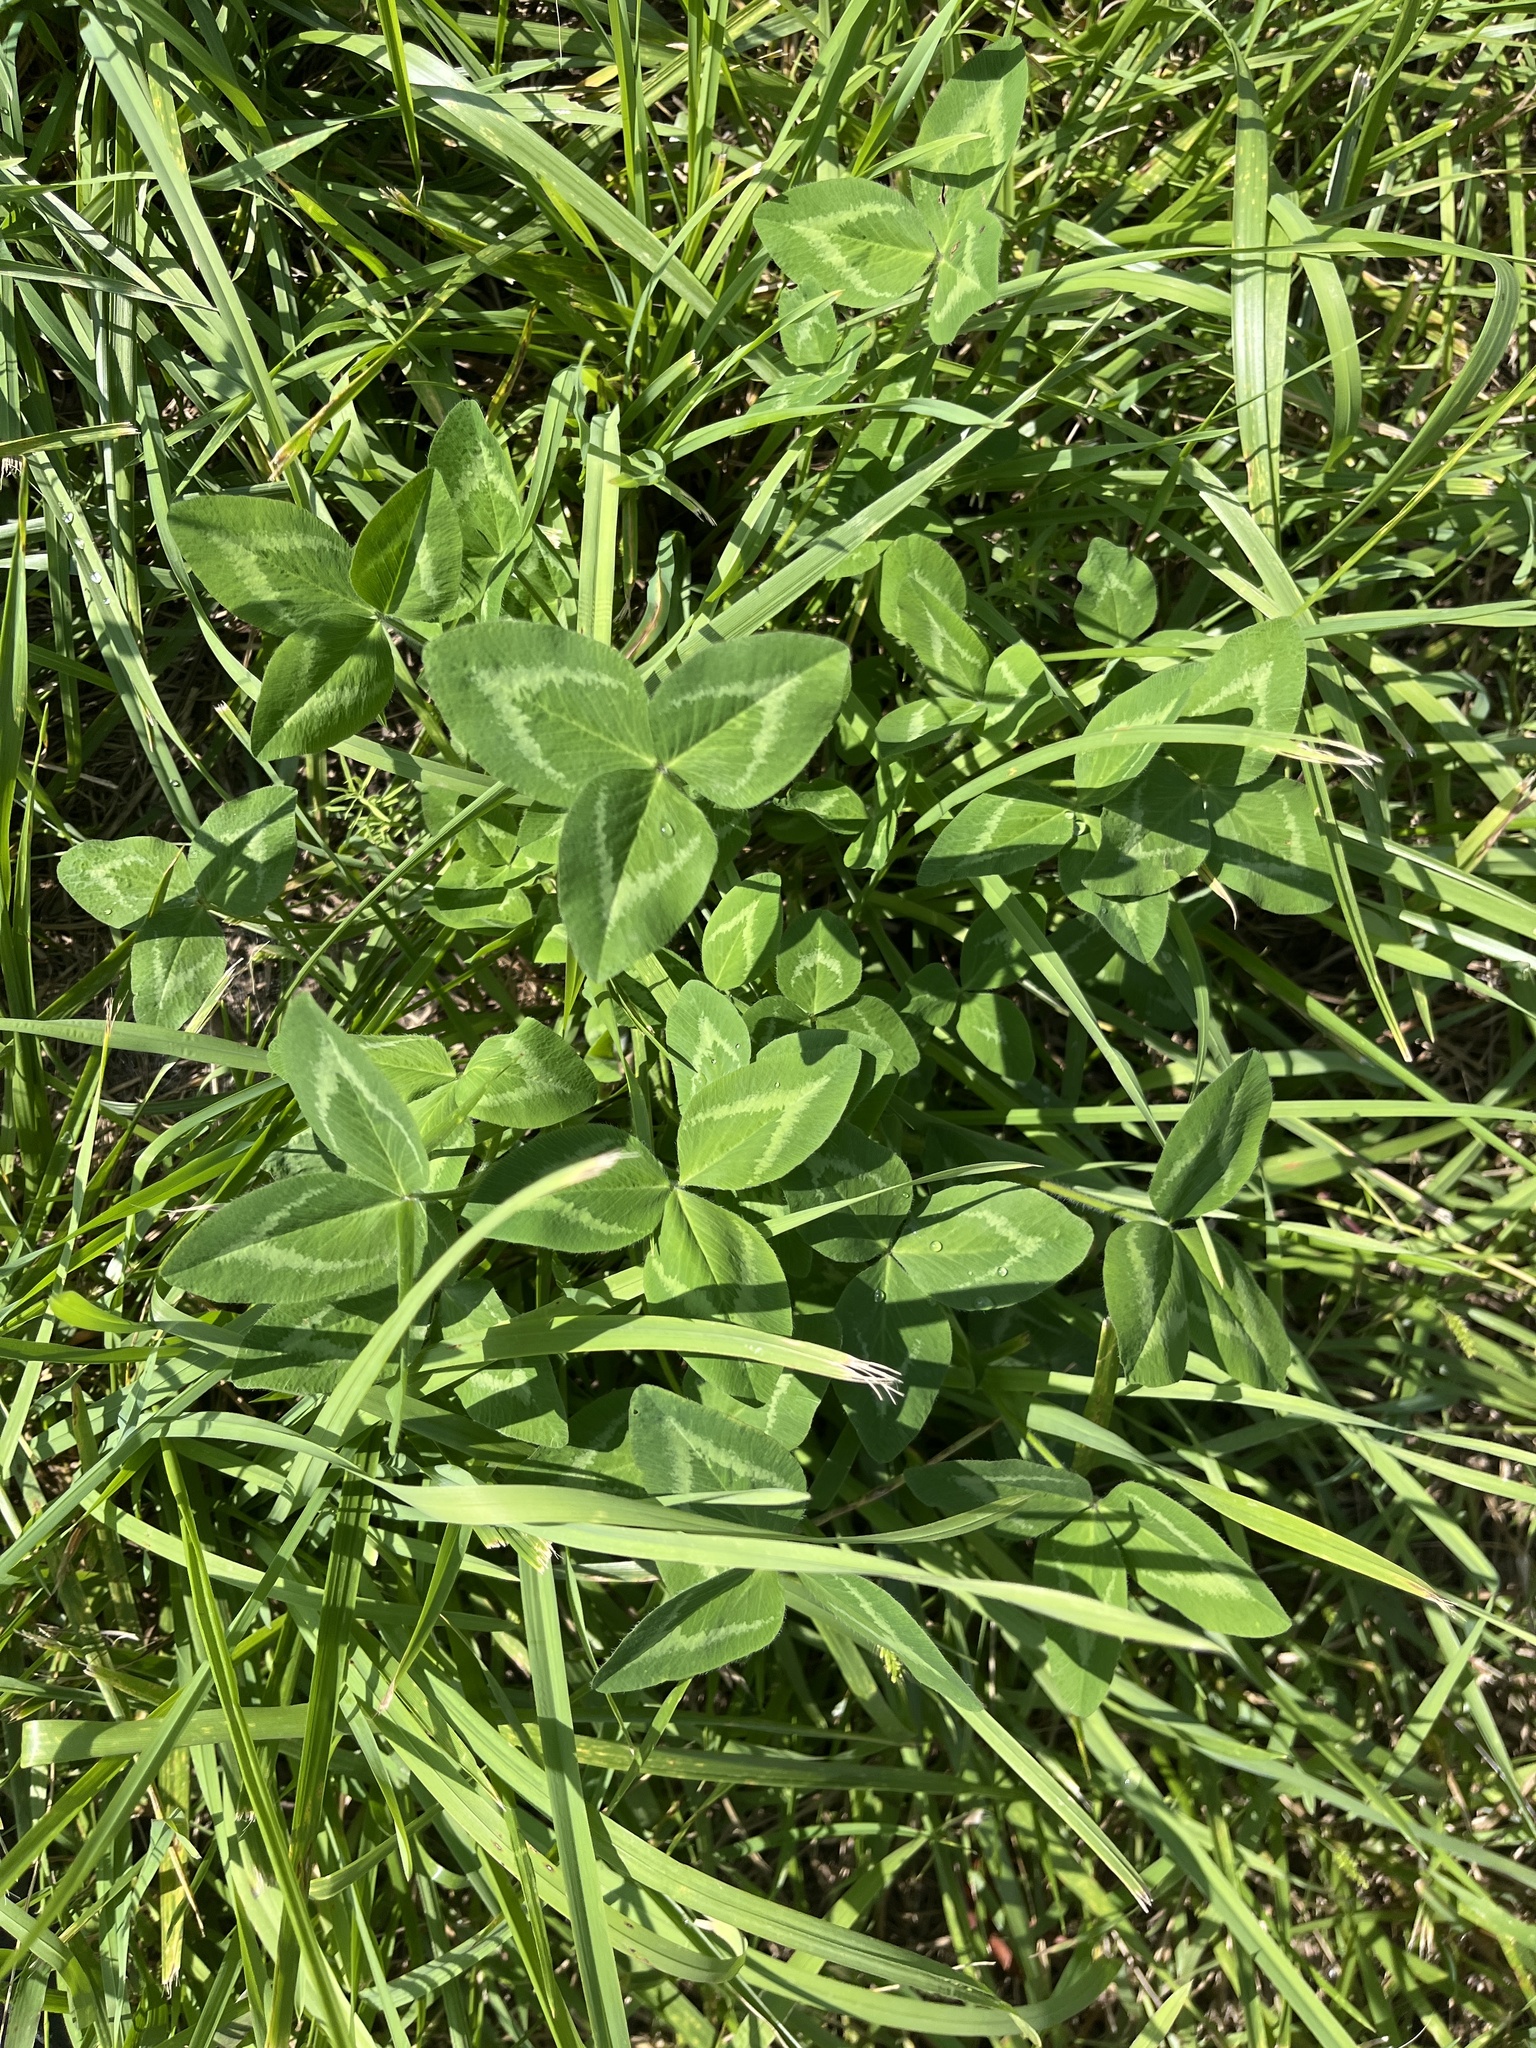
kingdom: Plantae
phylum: Tracheophyta
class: Magnoliopsida
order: Fabales
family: Fabaceae
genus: Trifolium
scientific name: Trifolium pratense
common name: Red clover
